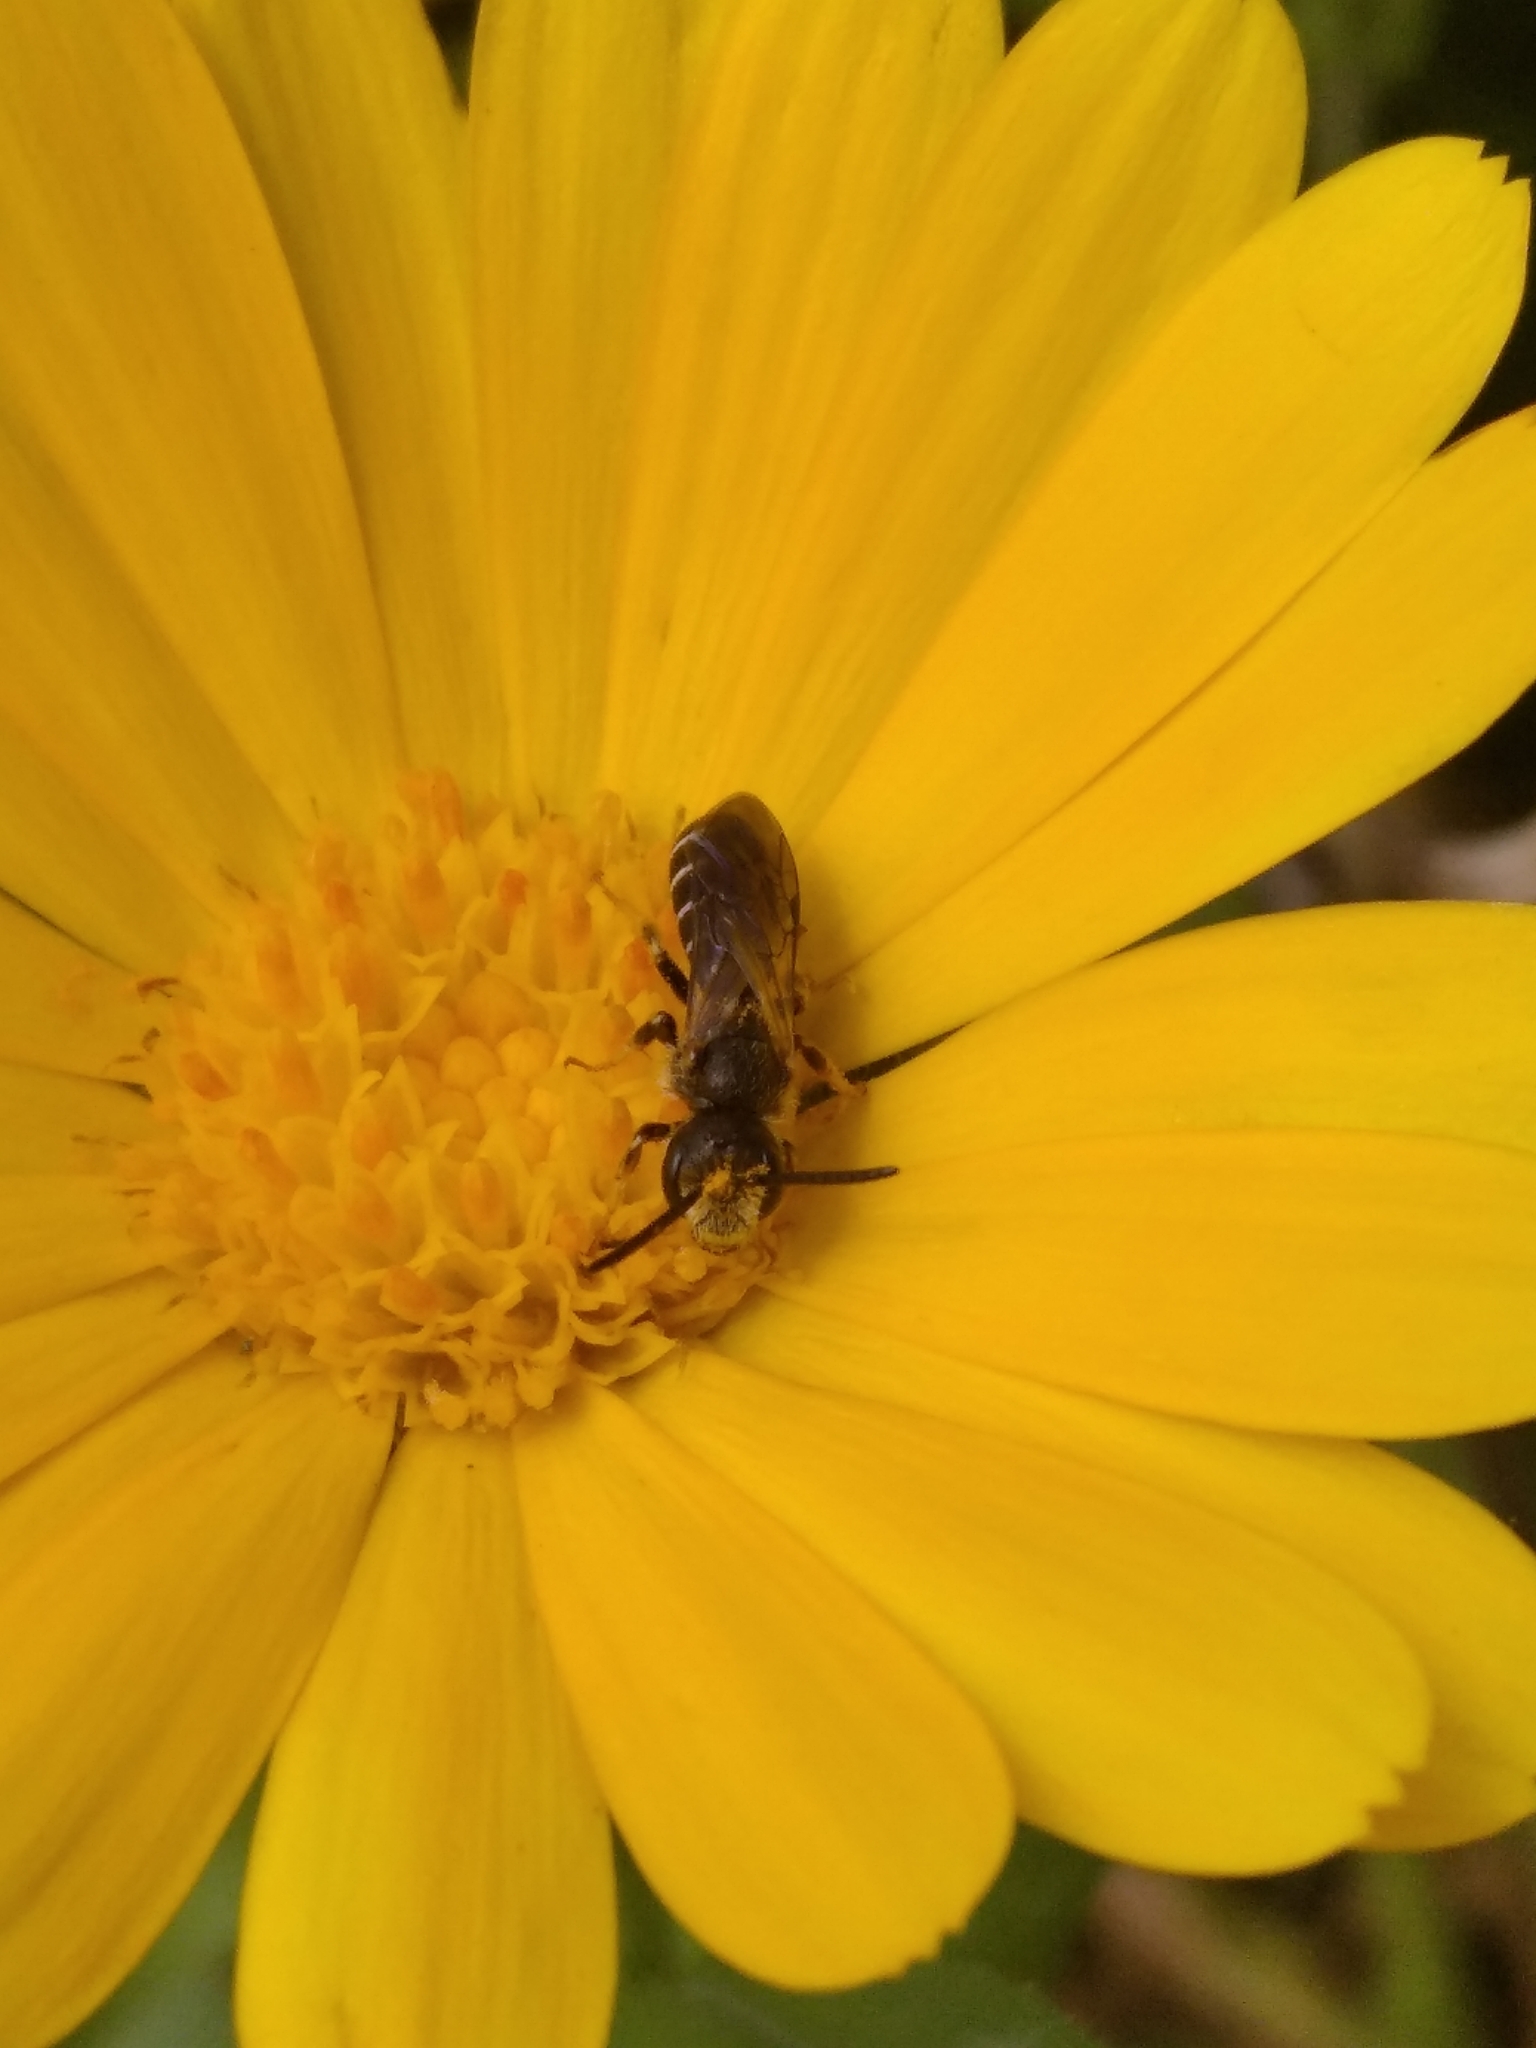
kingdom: Animalia
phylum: Arthropoda
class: Insecta
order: Hymenoptera
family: Halictidae
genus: Halictus
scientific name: Halictus
